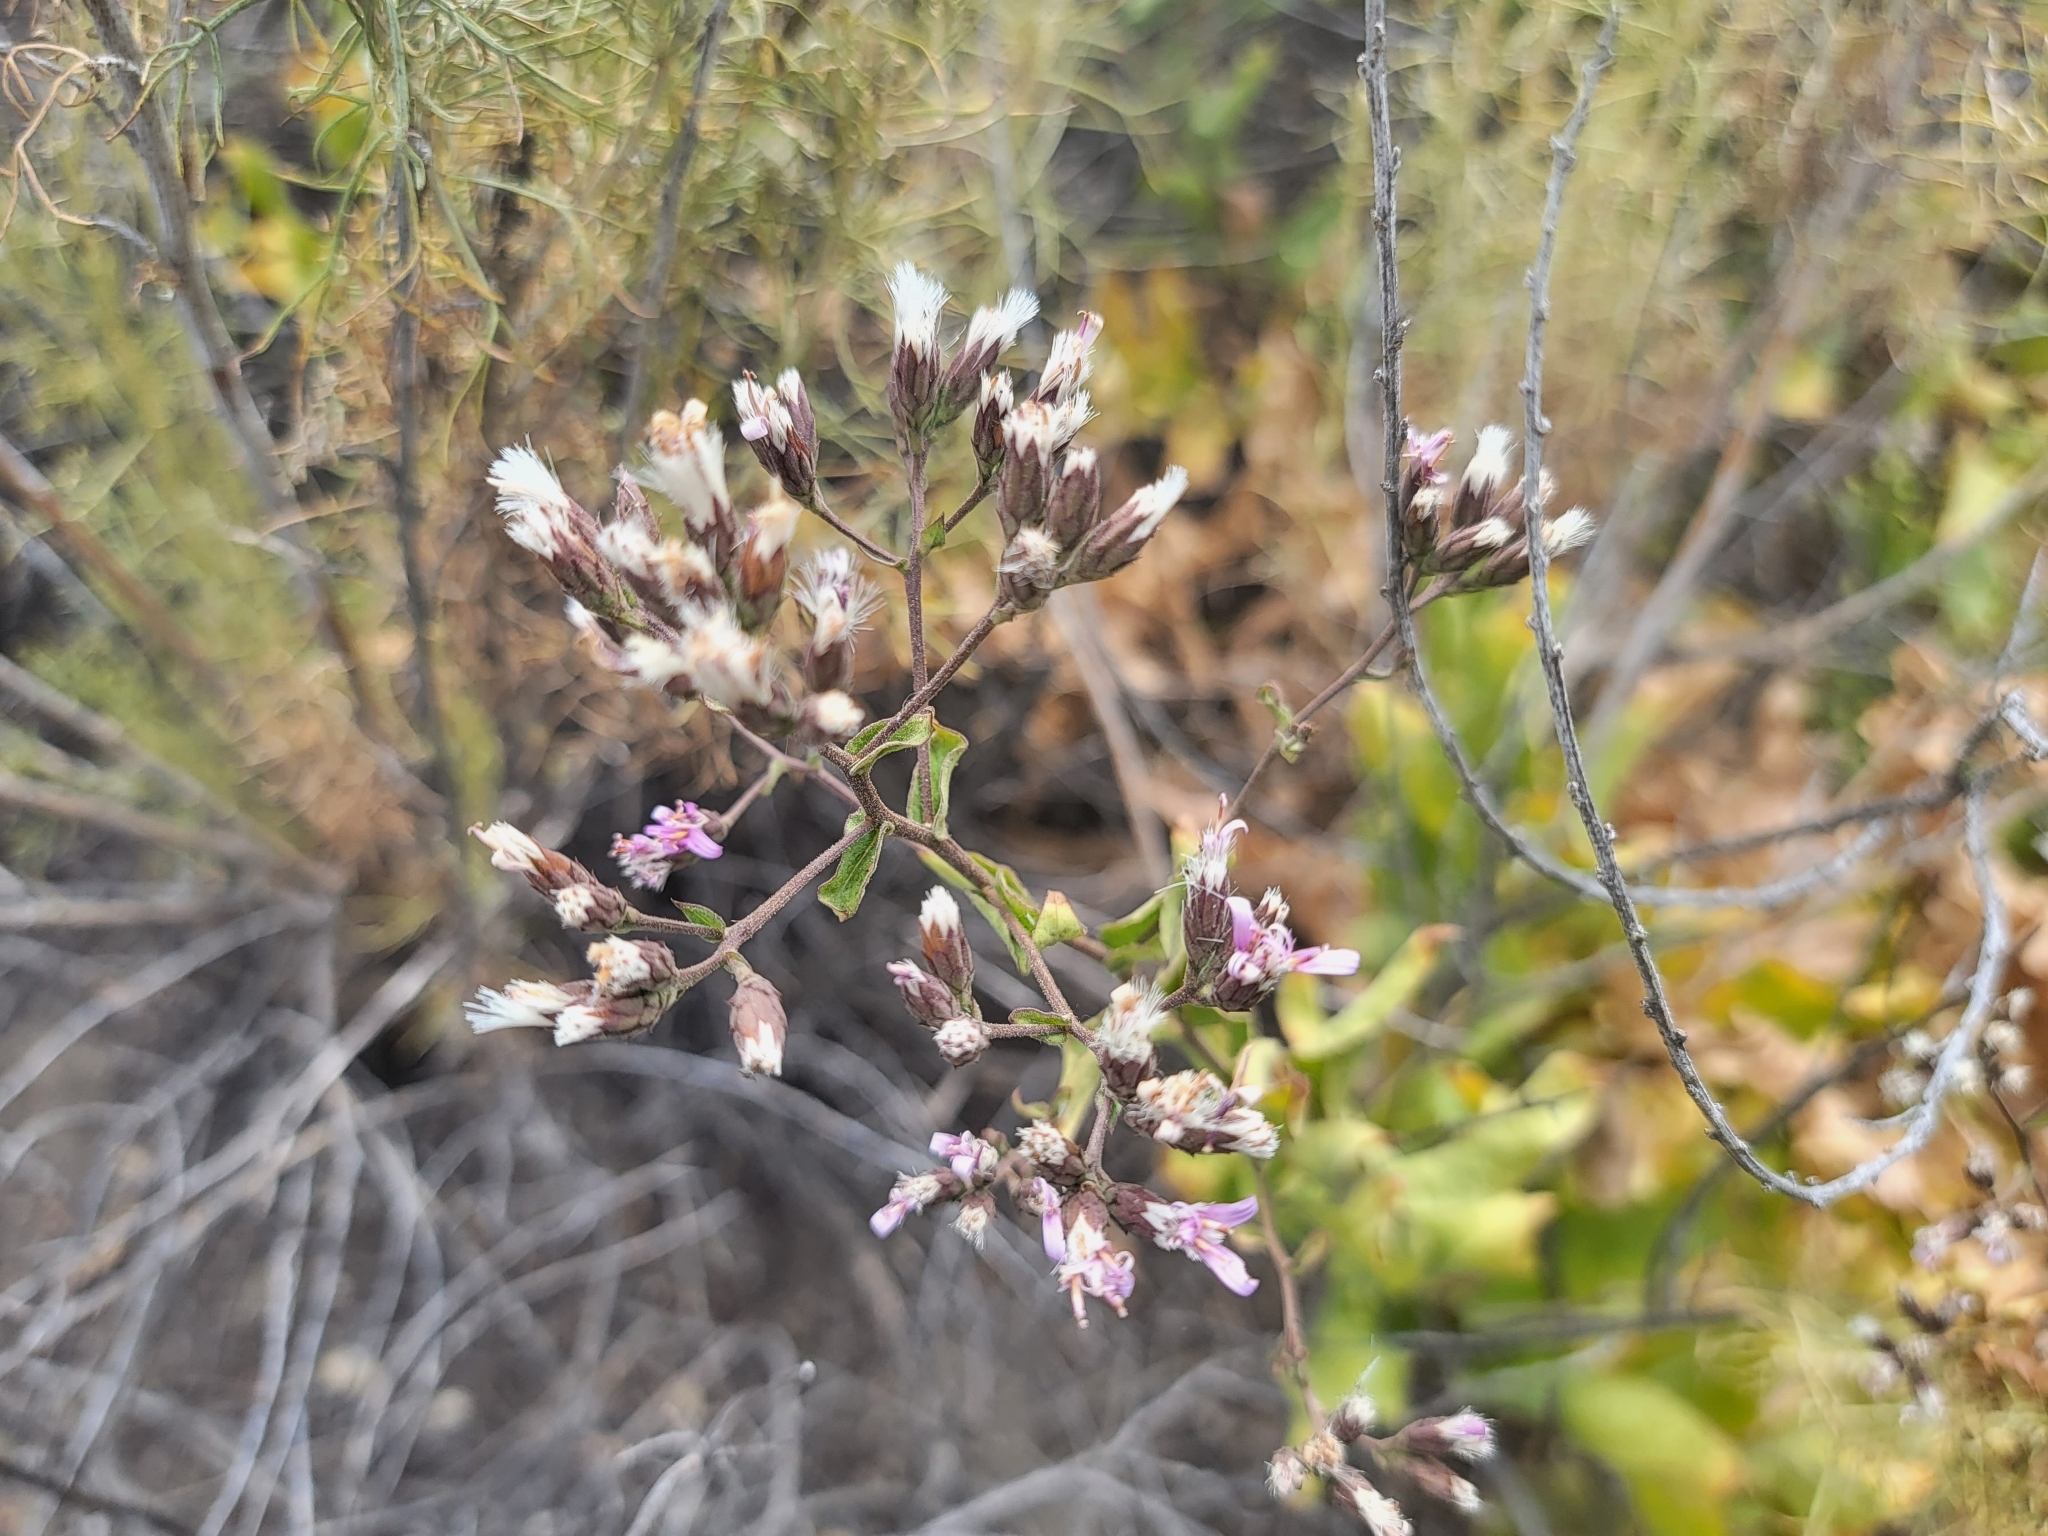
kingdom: Plantae
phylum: Tracheophyta
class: Magnoliopsida
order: Asterales
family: Asteraceae
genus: Acourtia
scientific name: Acourtia microcephala
